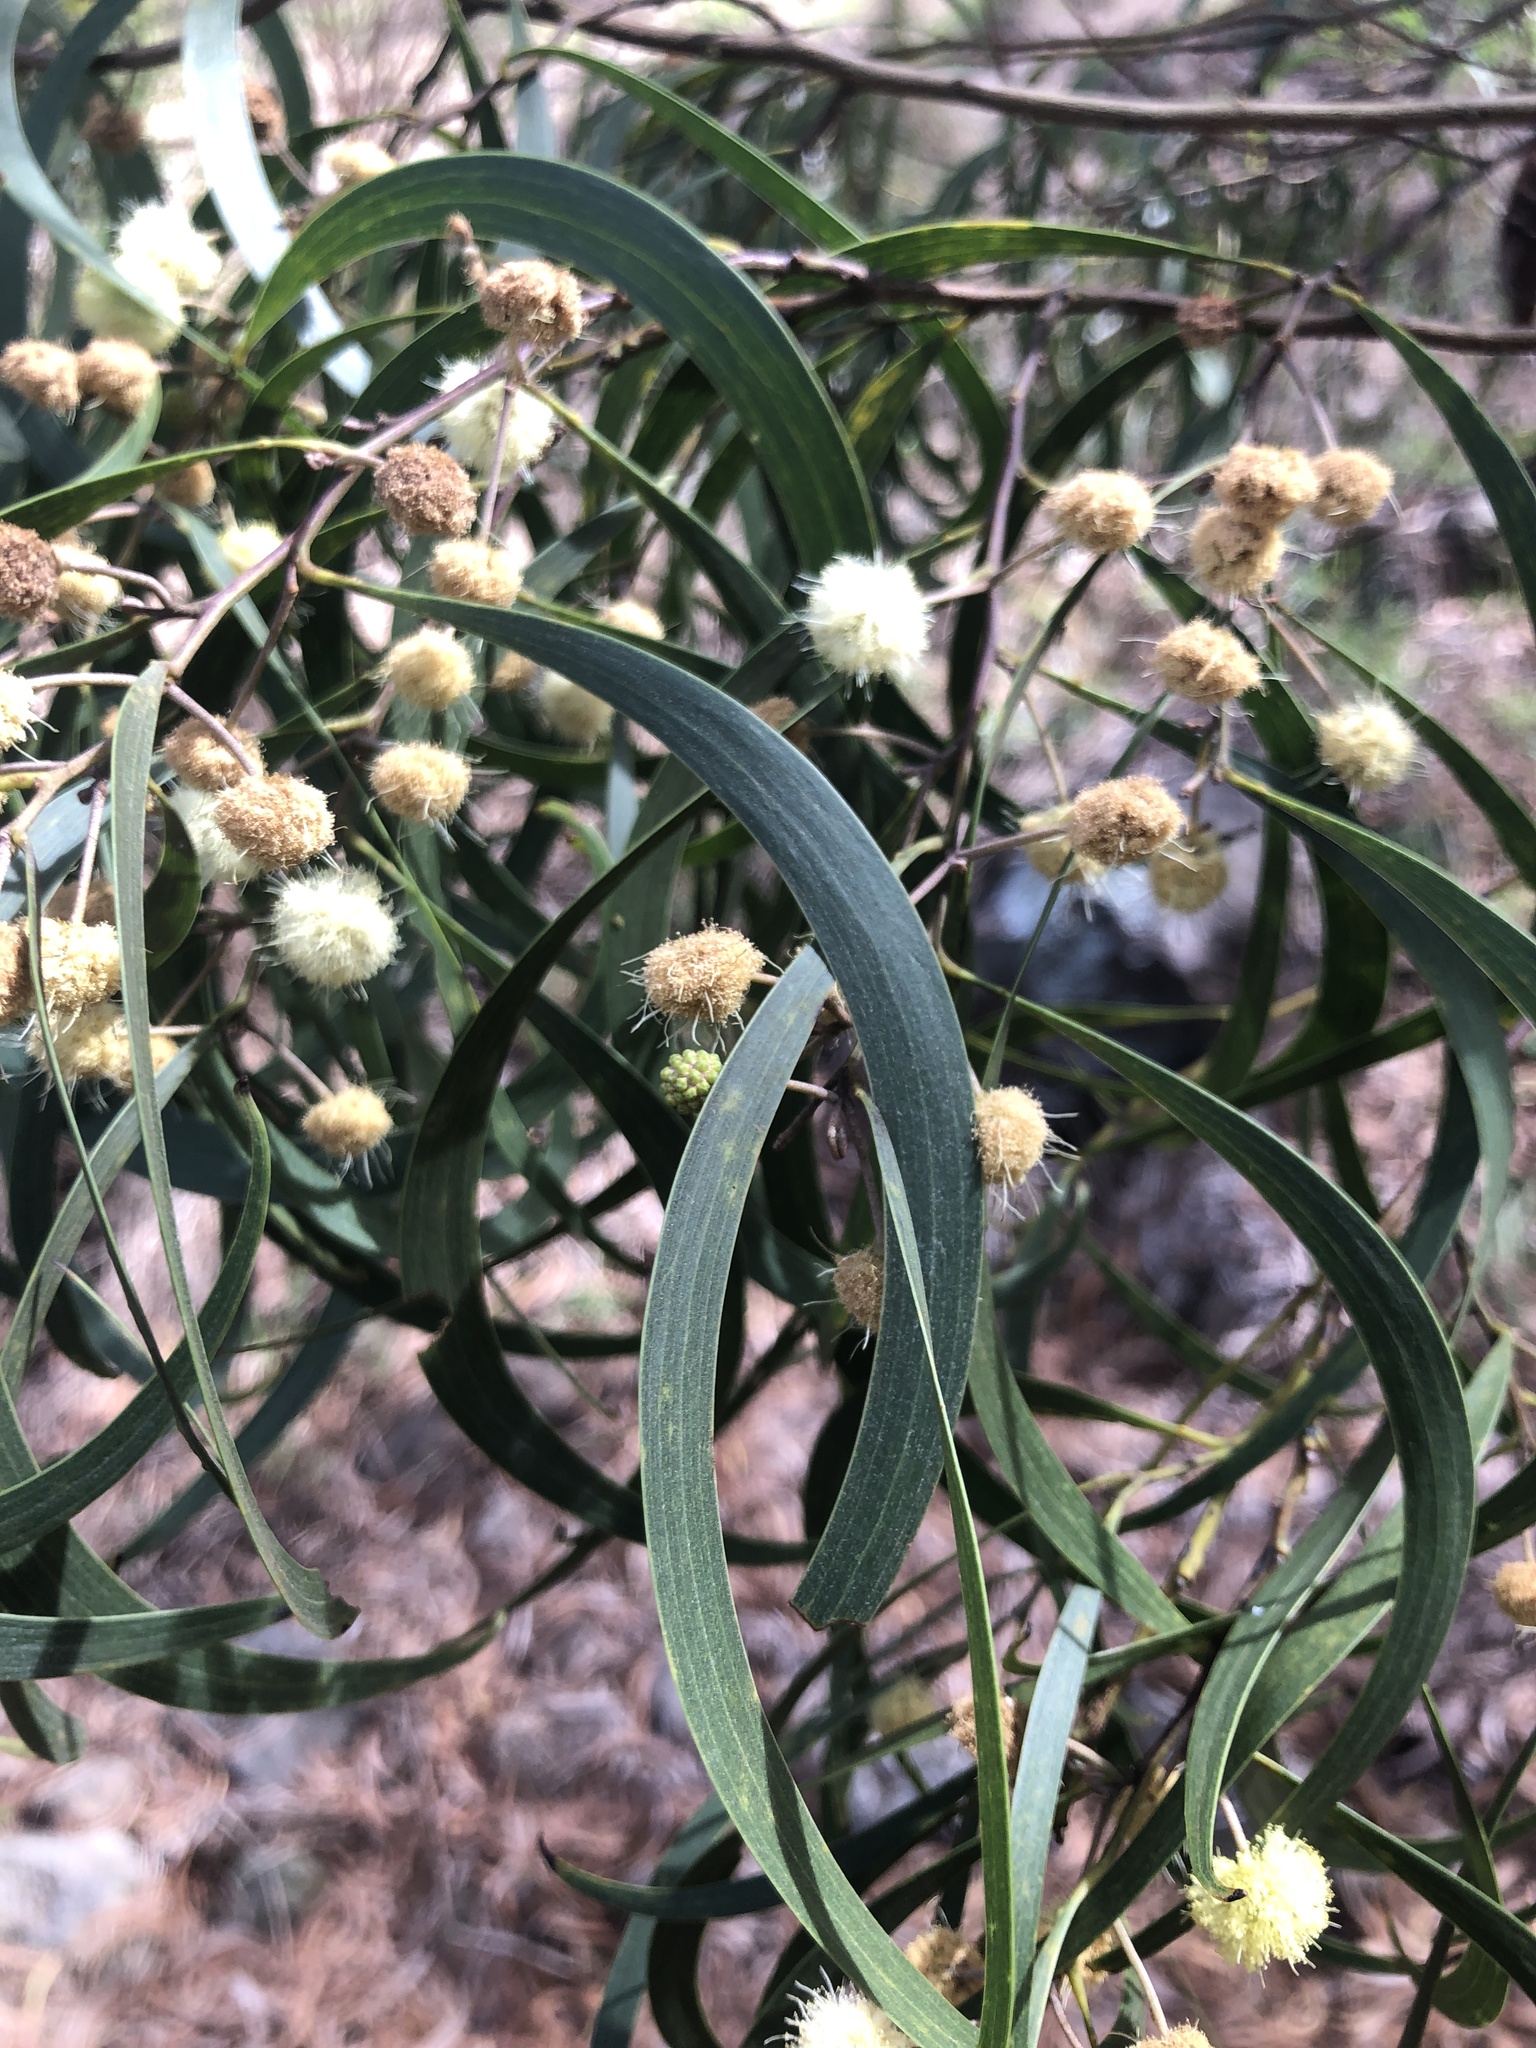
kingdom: Plantae
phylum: Tracheophyta
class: Magnoliopsida
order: Fabales
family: Fabaceae
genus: Acacia
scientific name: Acacia koa
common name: Gray koa
